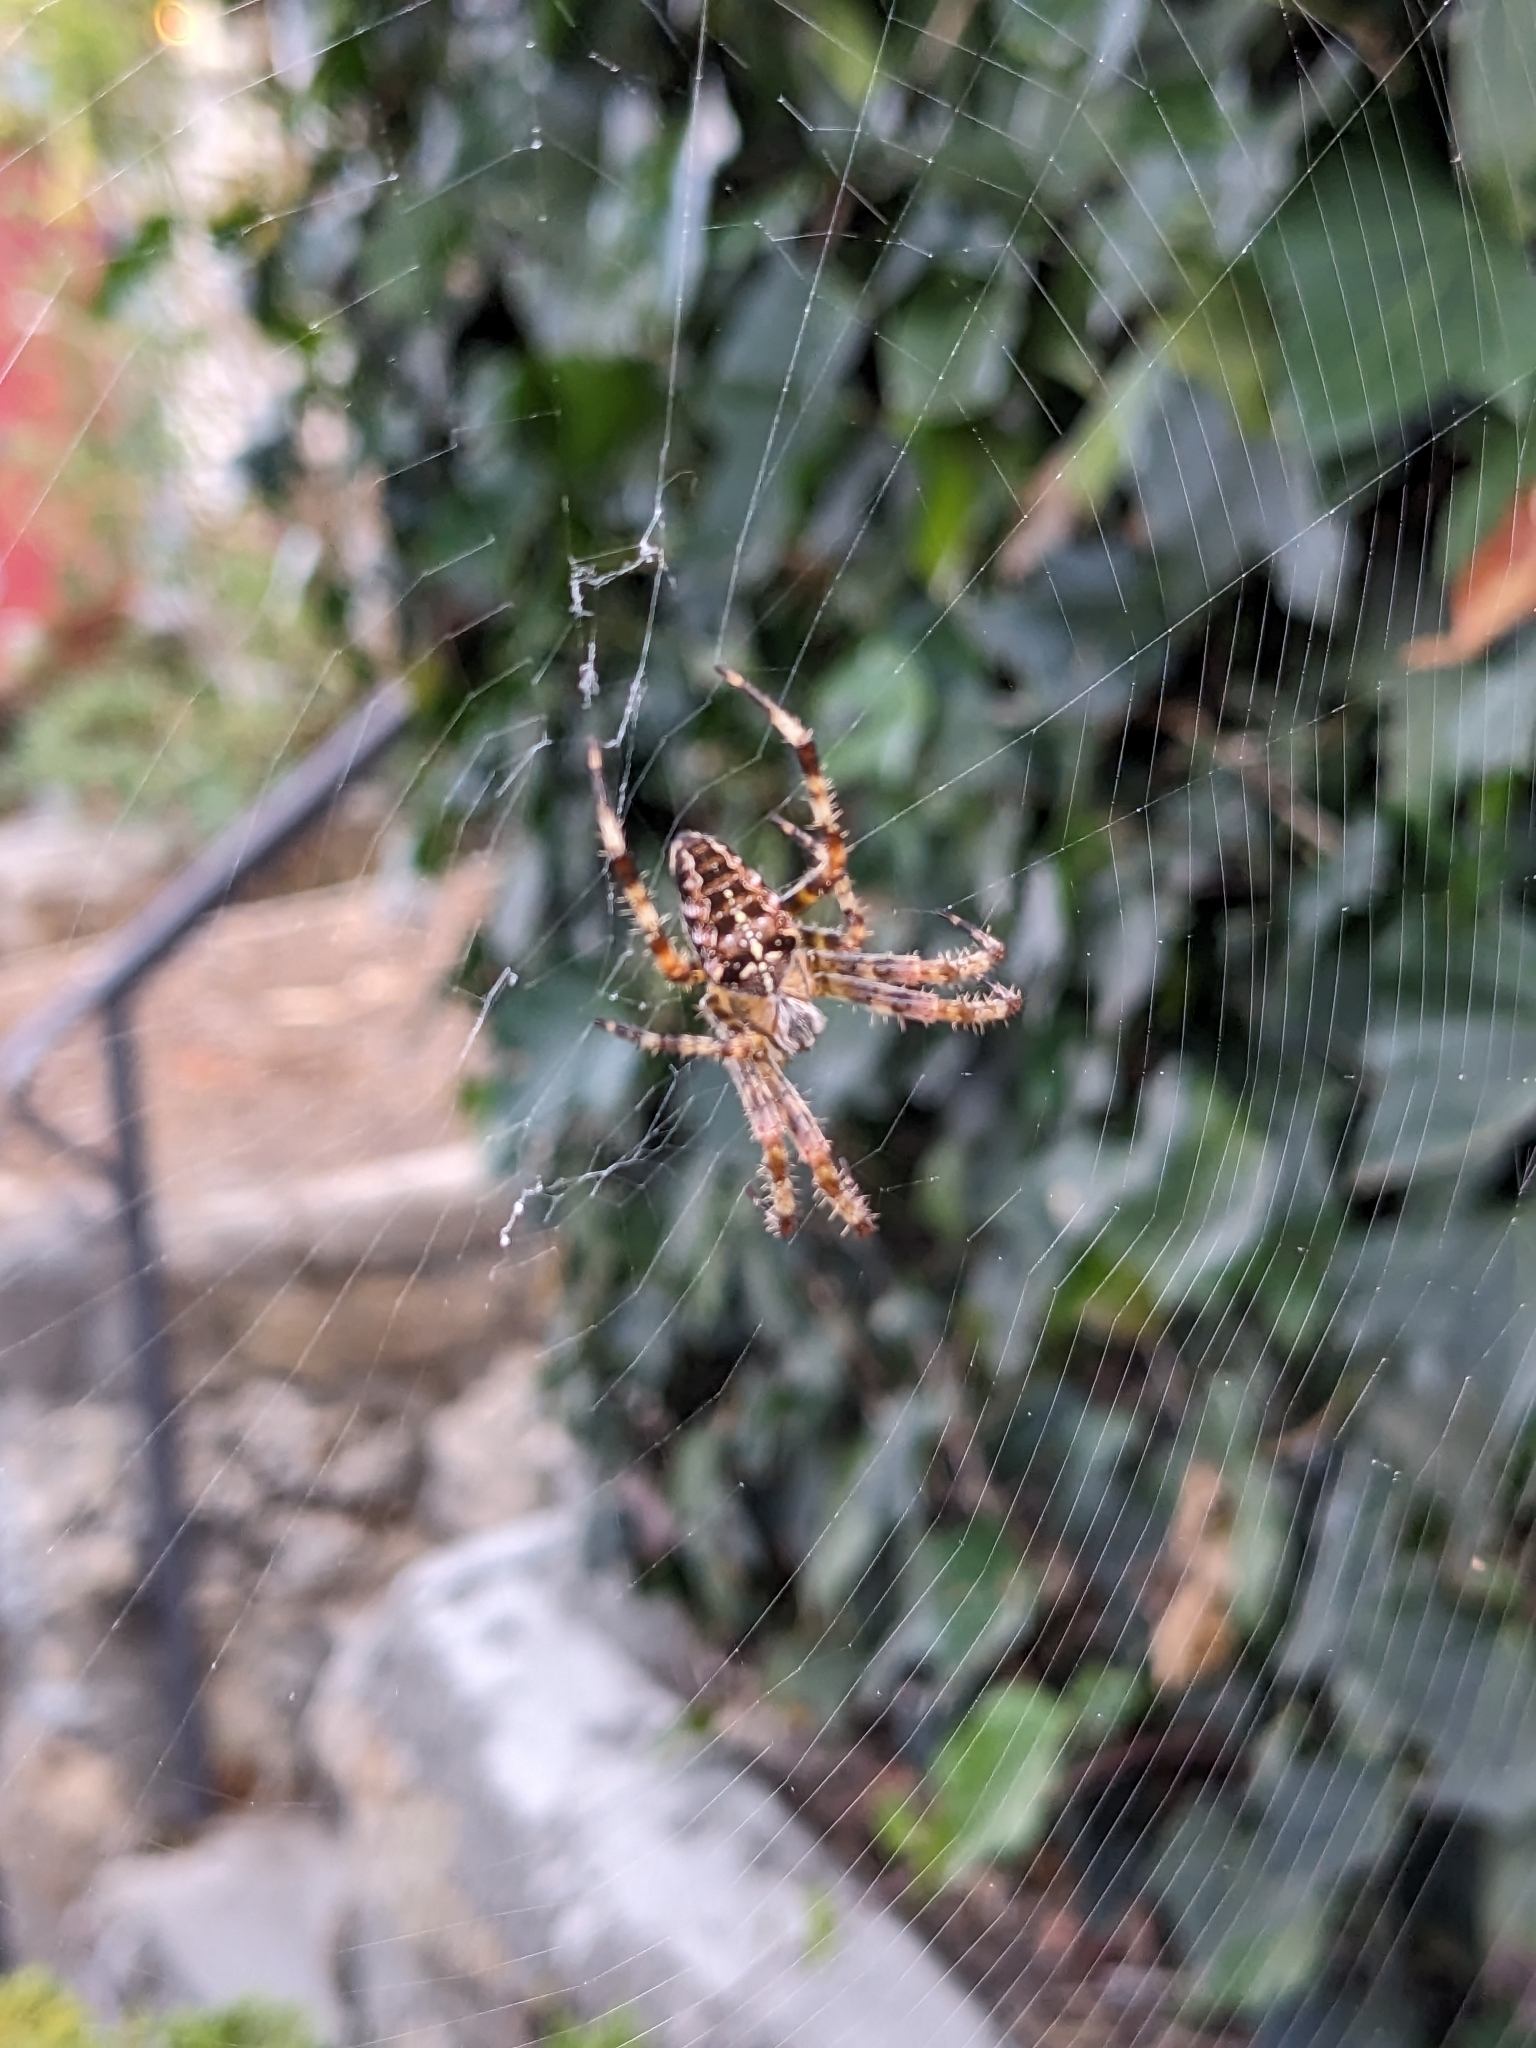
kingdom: Animalia
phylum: Arthropoda
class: Arachnida
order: Araneae
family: Araneidae
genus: Araneus
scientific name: Araneus diadematus
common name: Cross orbweaver
